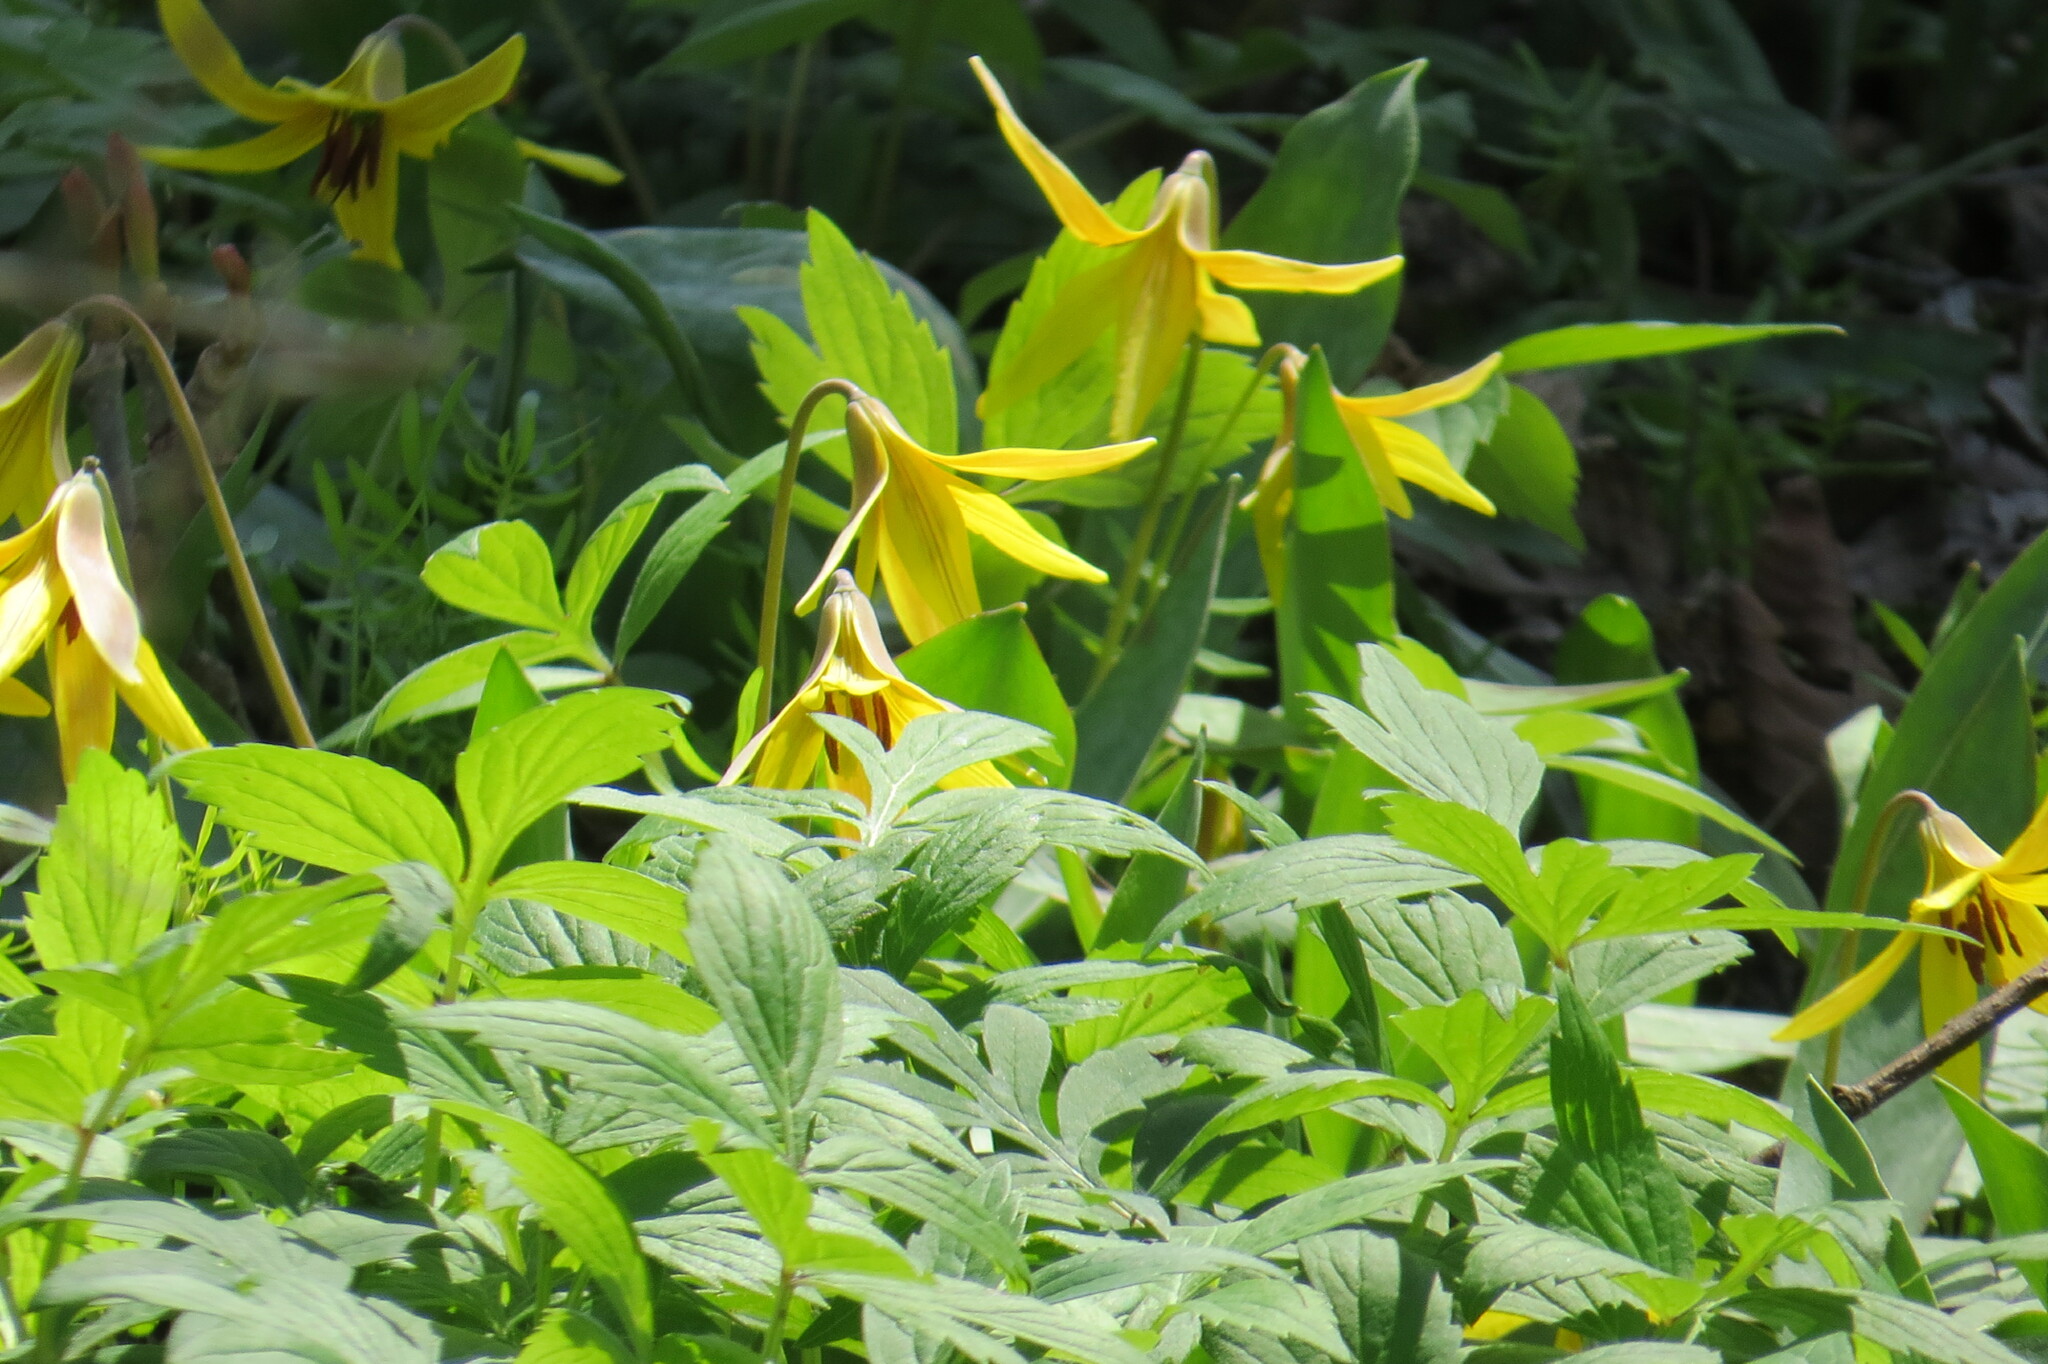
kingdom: Plantae
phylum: Tracheophyta
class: Liliopsida
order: Liliales
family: Liliaceae
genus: Erythronium
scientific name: Erythronium americanum
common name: Yellow adder's-tongue
